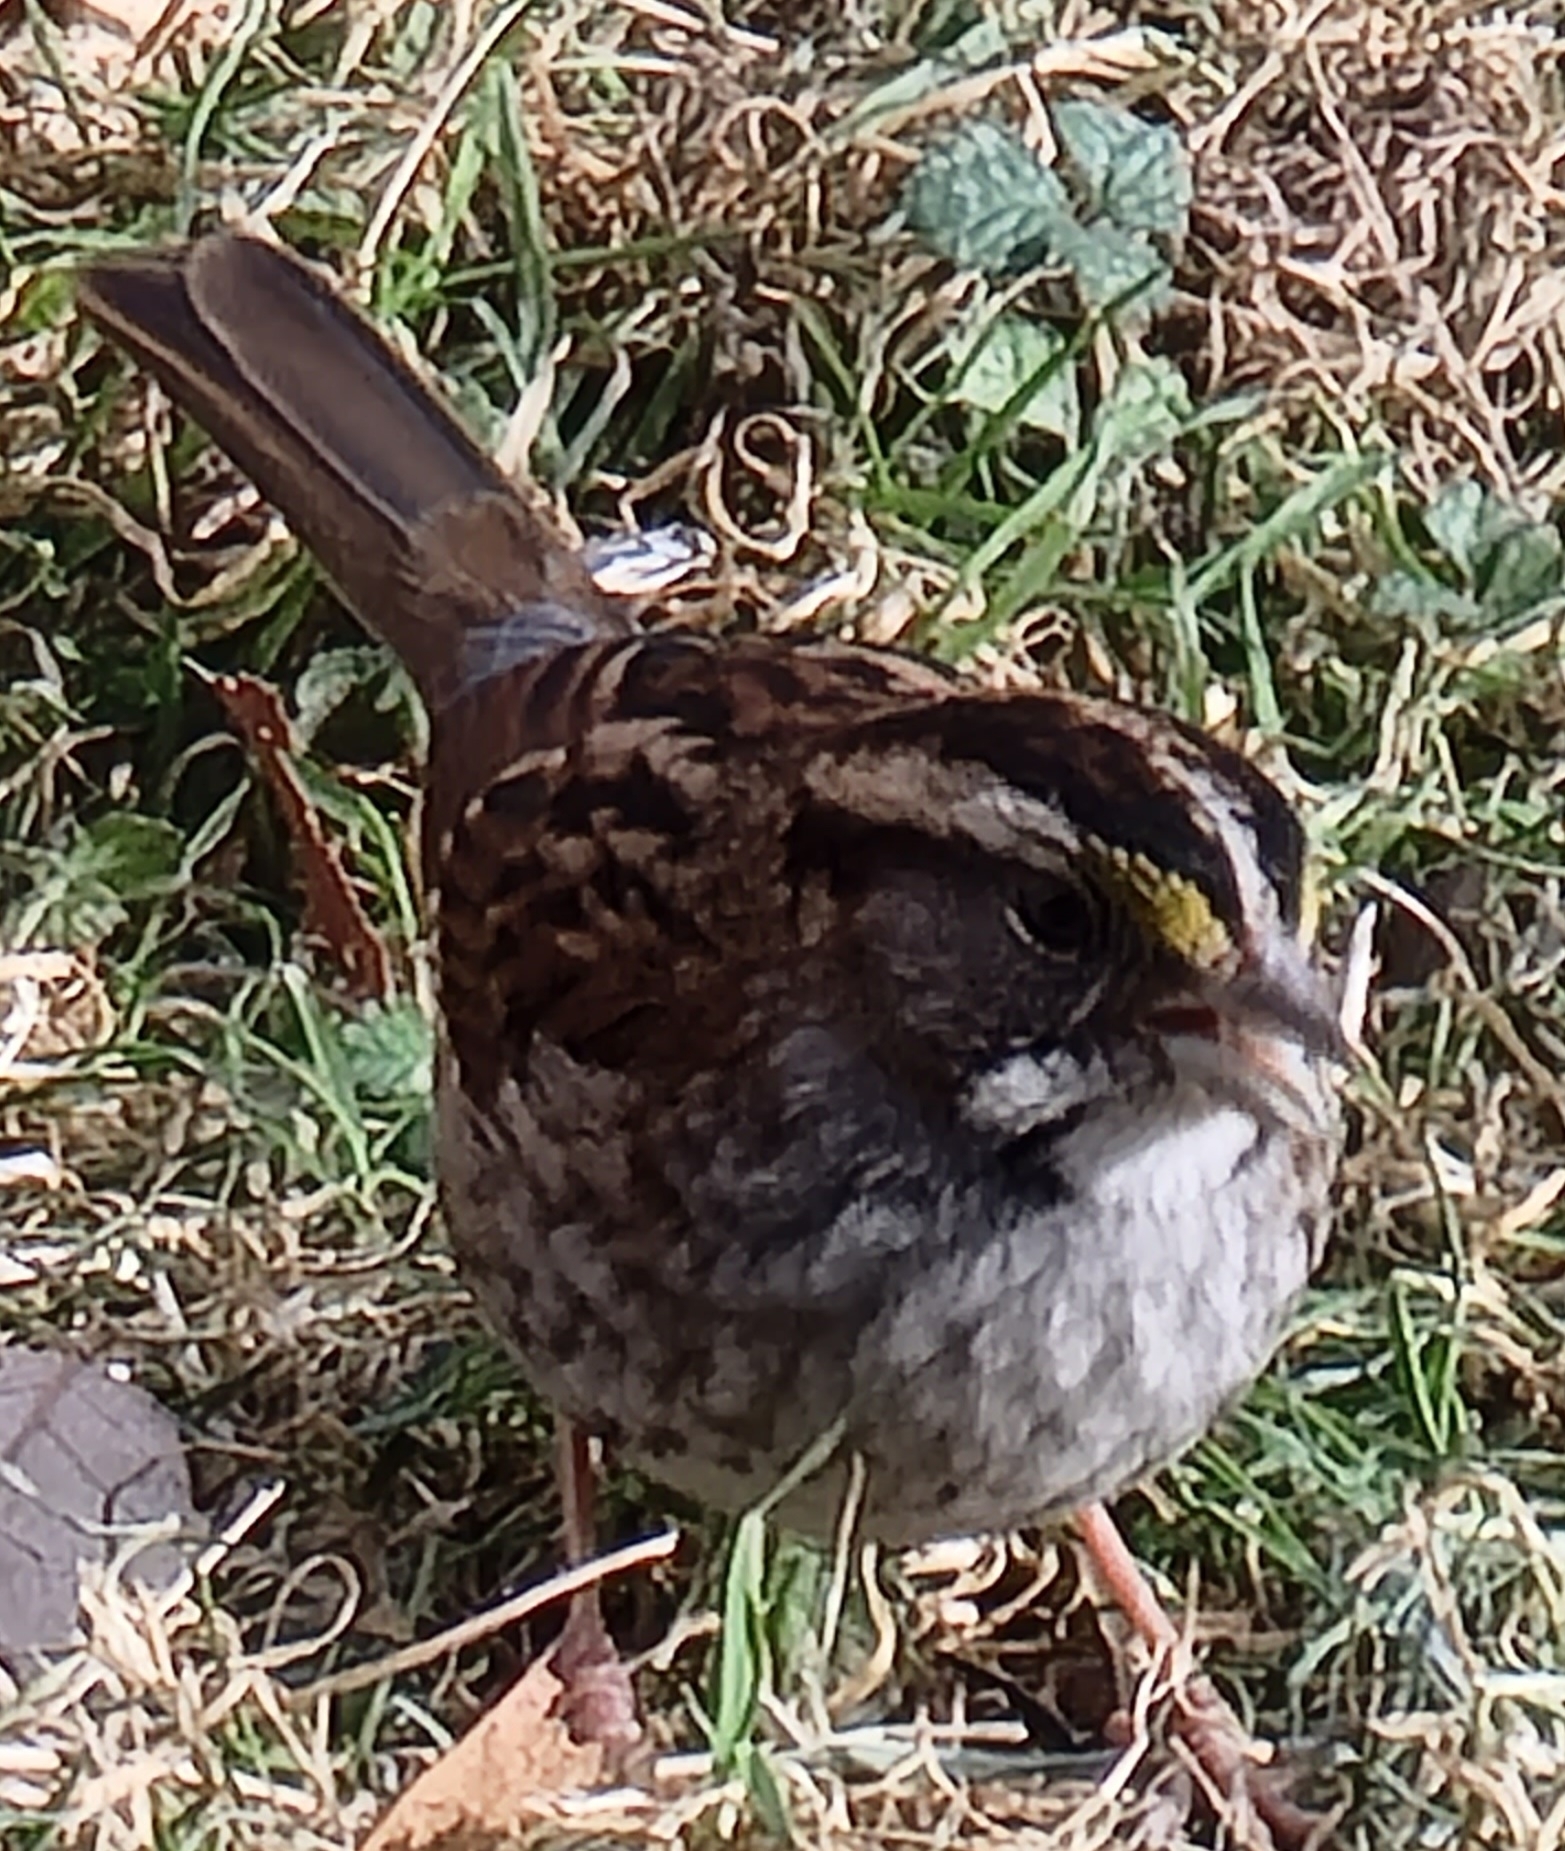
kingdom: Animalia
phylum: Chordata
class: Aves
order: Passeriformes
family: Passerellidae
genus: Zonotrichia
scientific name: Zonotrichia albicollis
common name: White-throated sparrow
